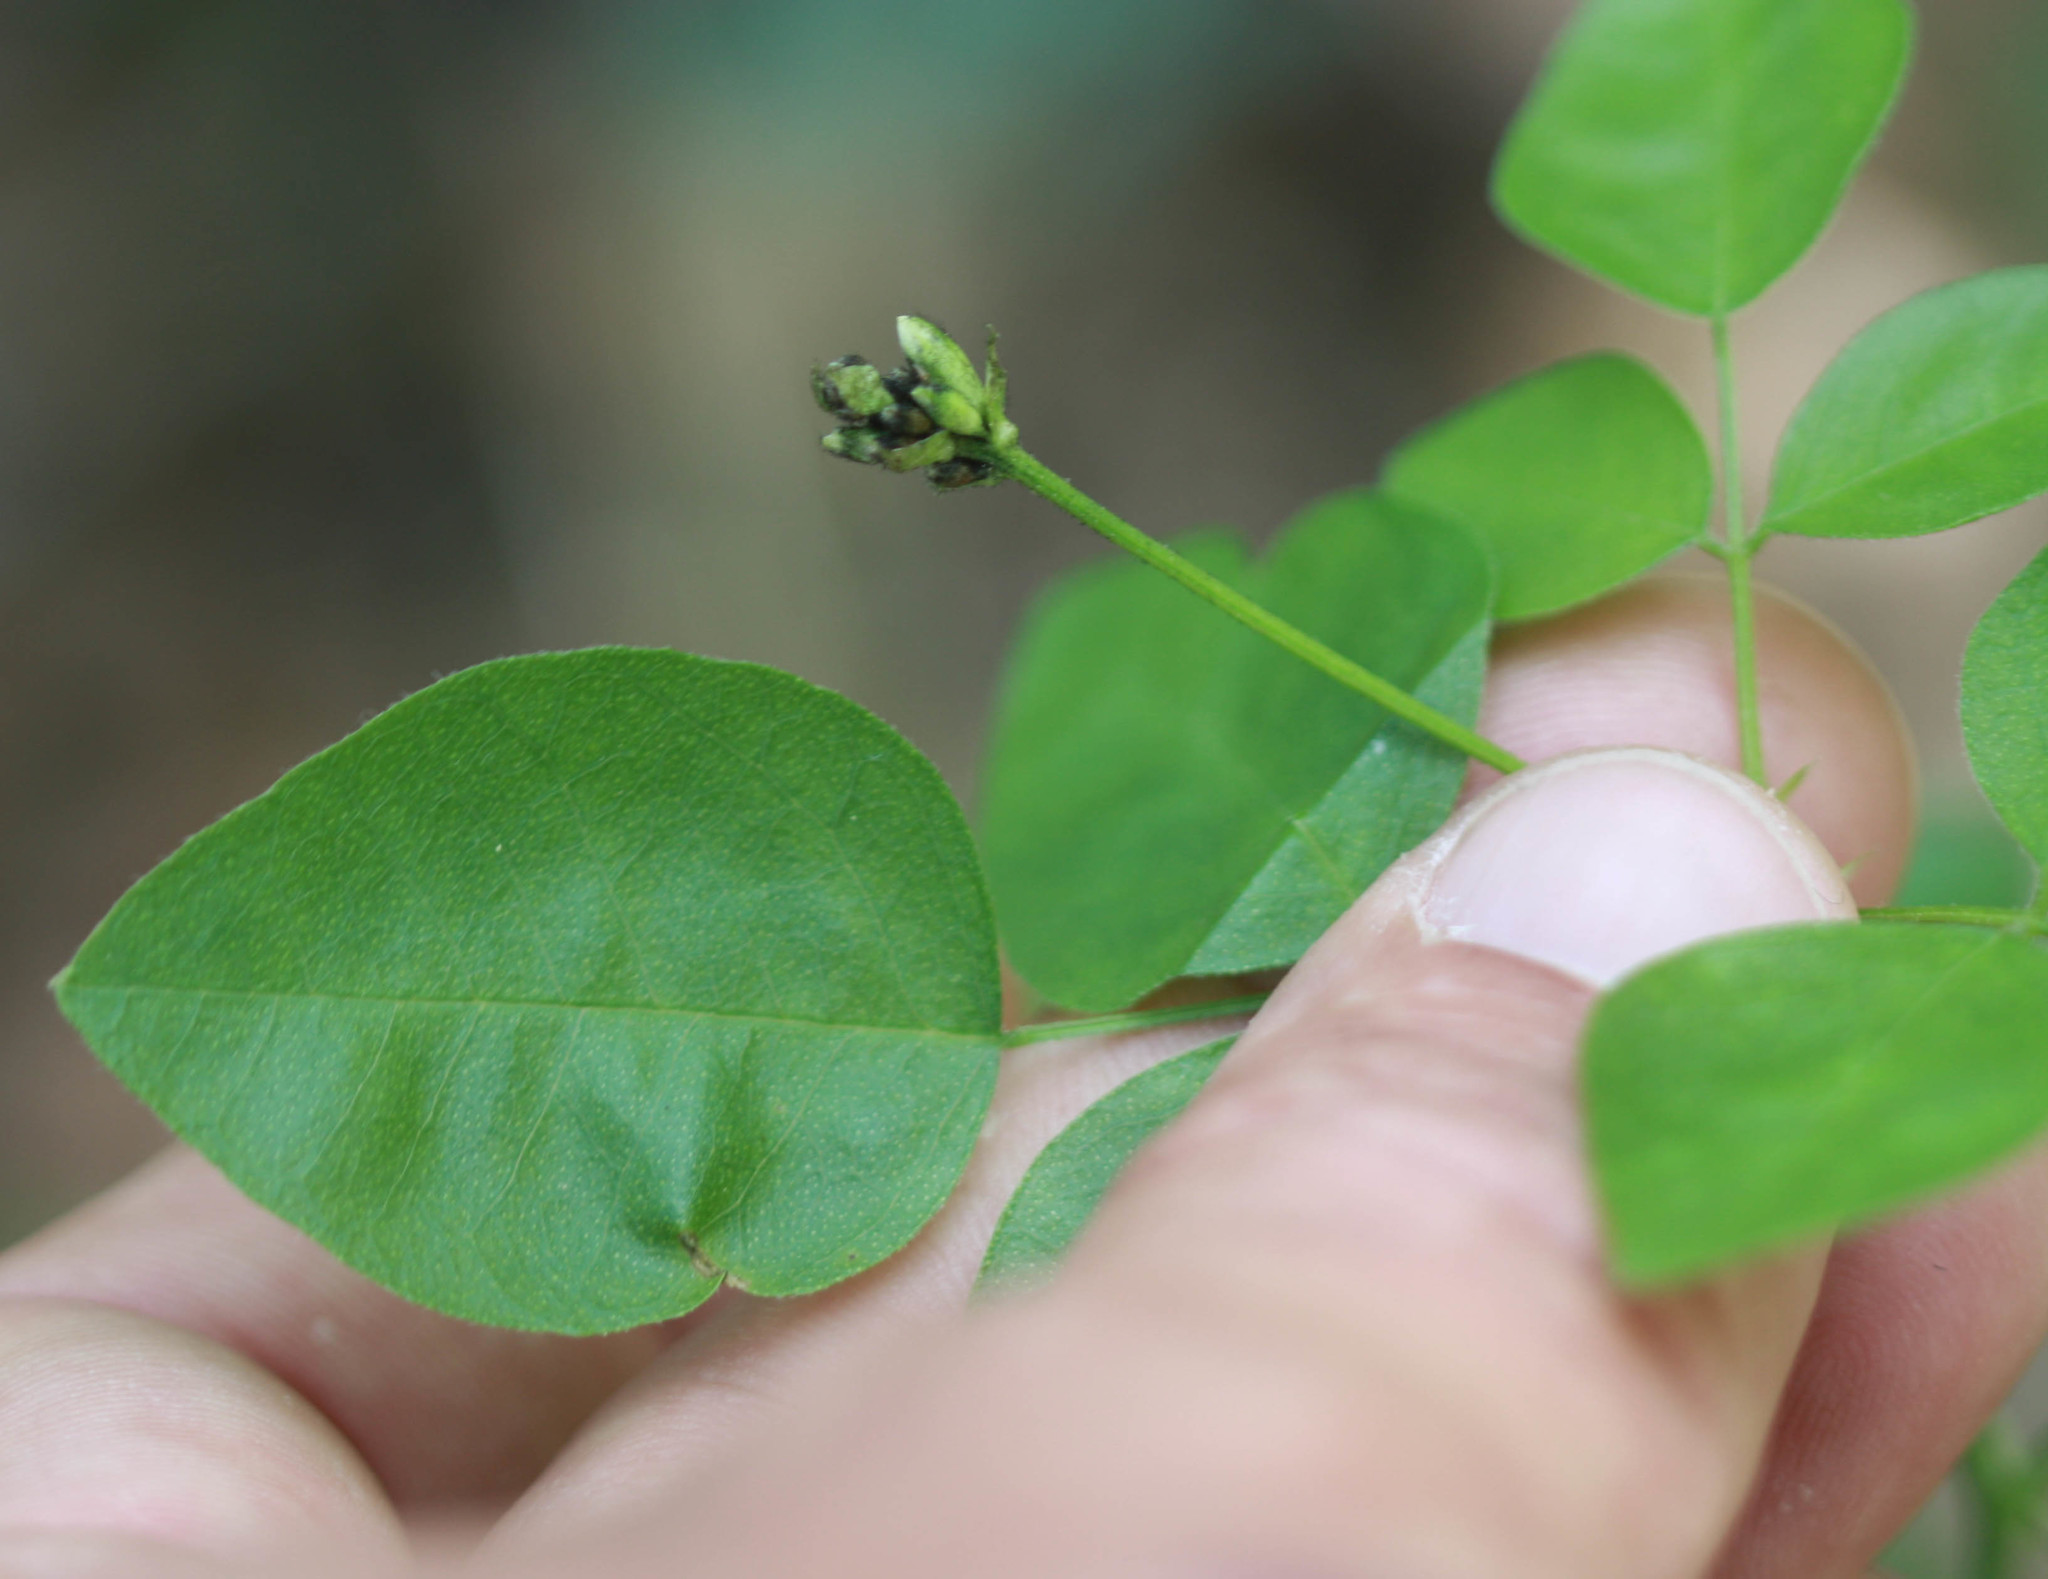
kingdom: Plantae
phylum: Tracheophyta
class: Magnoliopsida
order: Fabales
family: Fabaceae
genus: Rupertia
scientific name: Rupertia physodes
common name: California-tea
